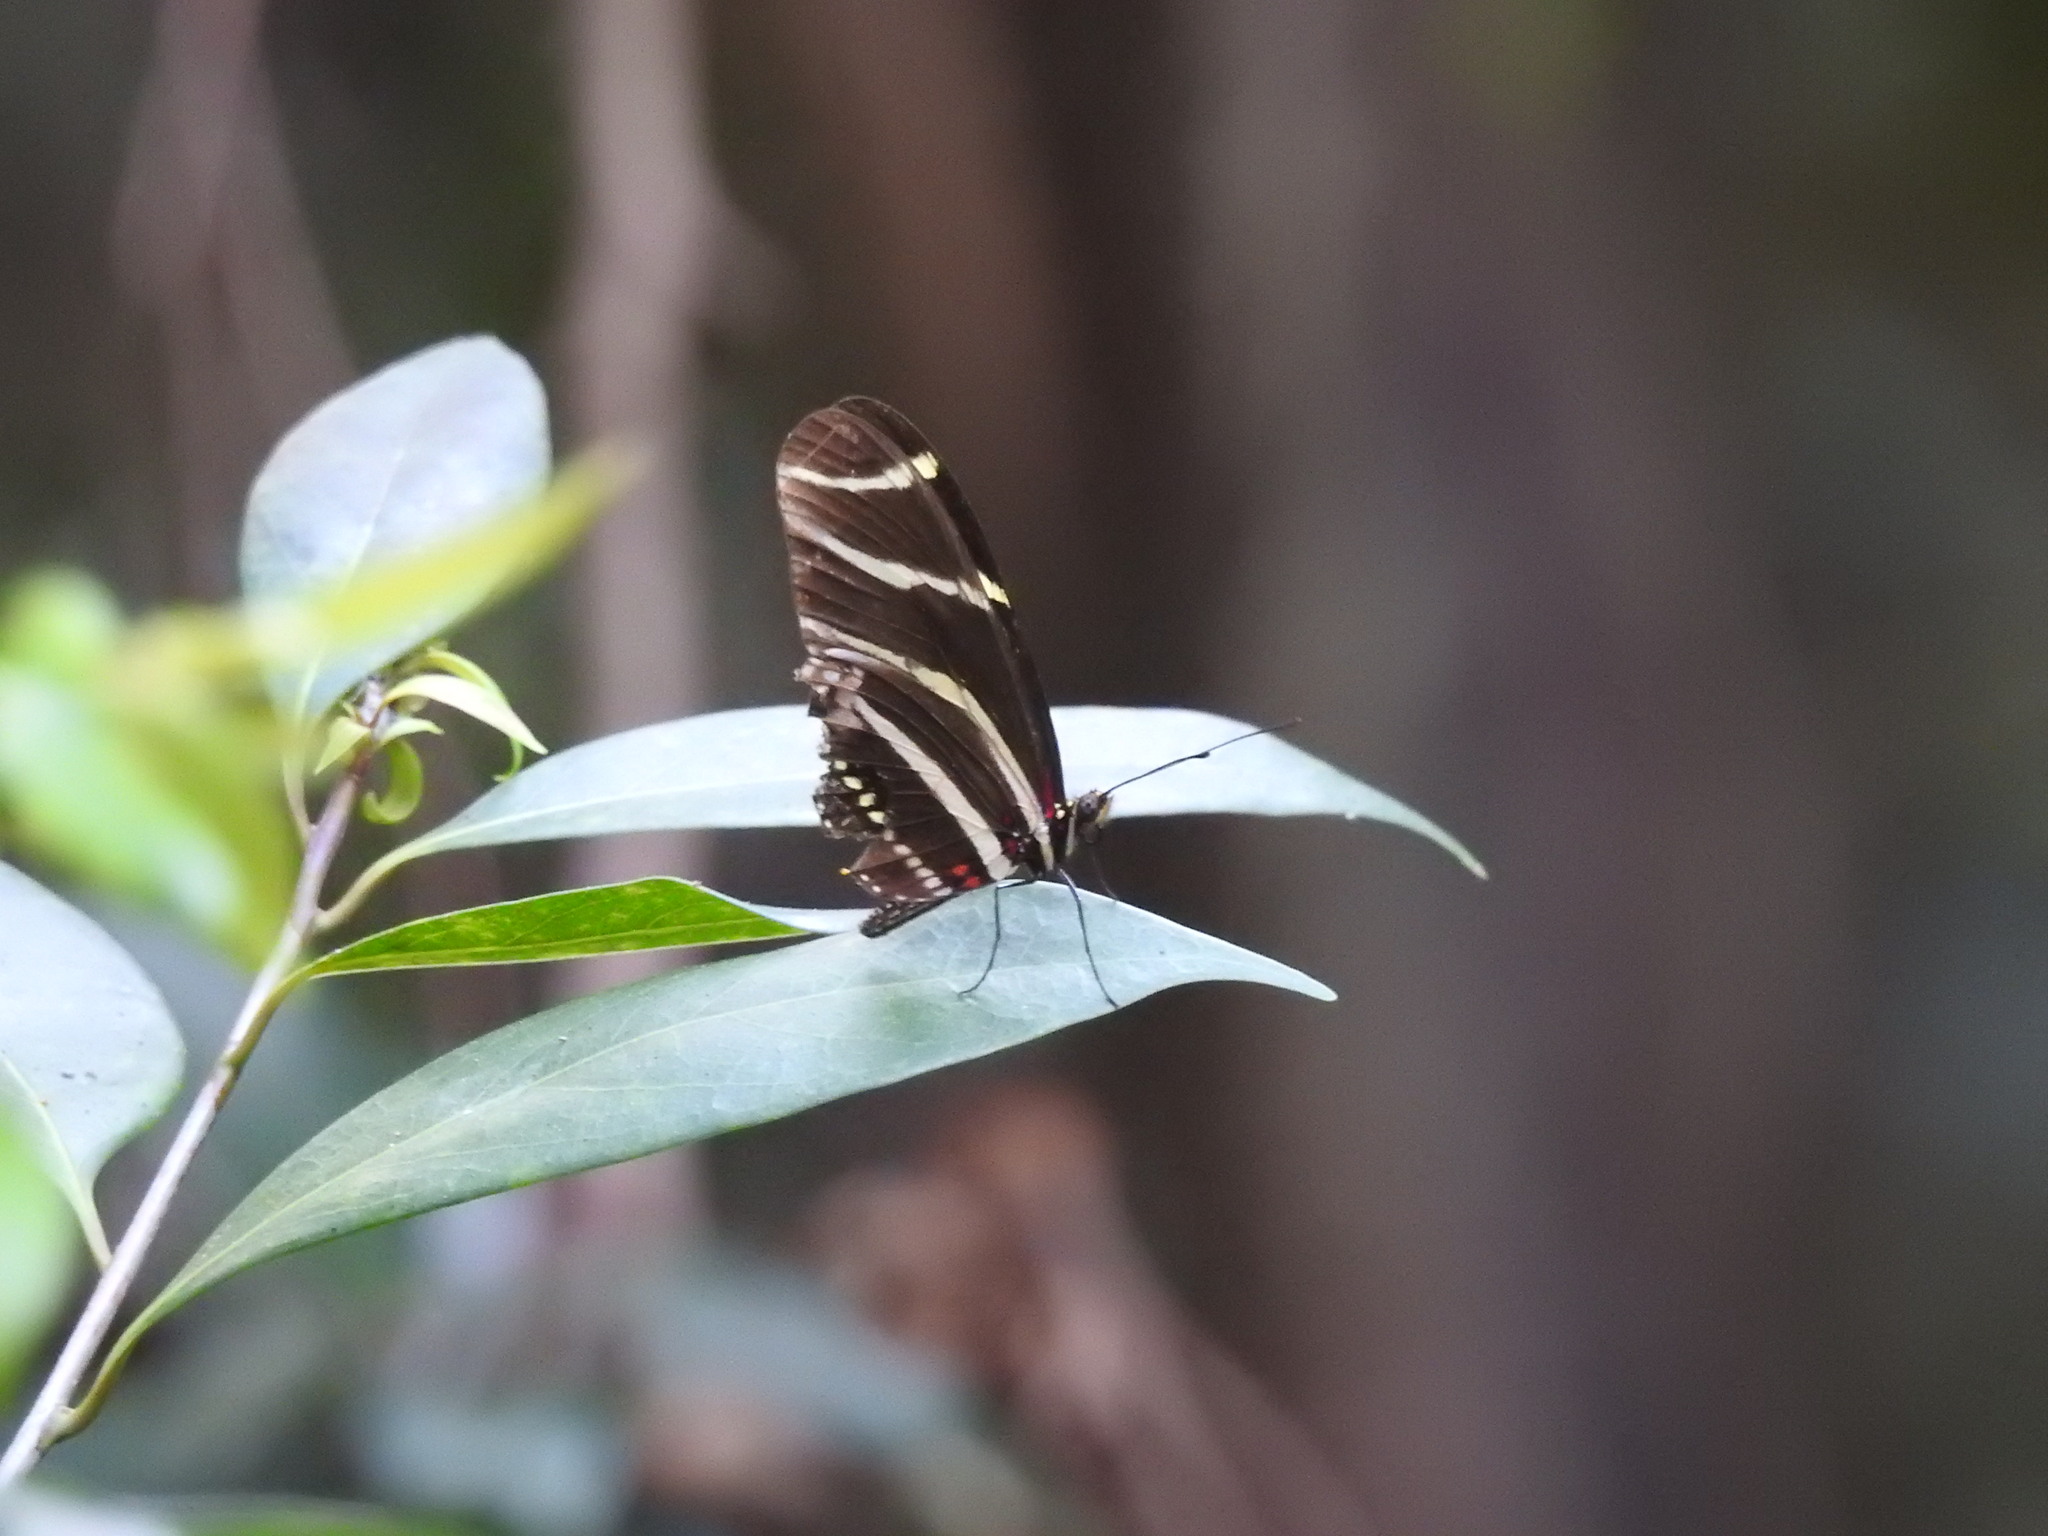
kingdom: Animalia
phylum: Arthropoda
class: Insecta
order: Lepidoptera
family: Nymphalidae
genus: Heliconius
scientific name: Heliconius charithonia
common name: Zebra long wing
